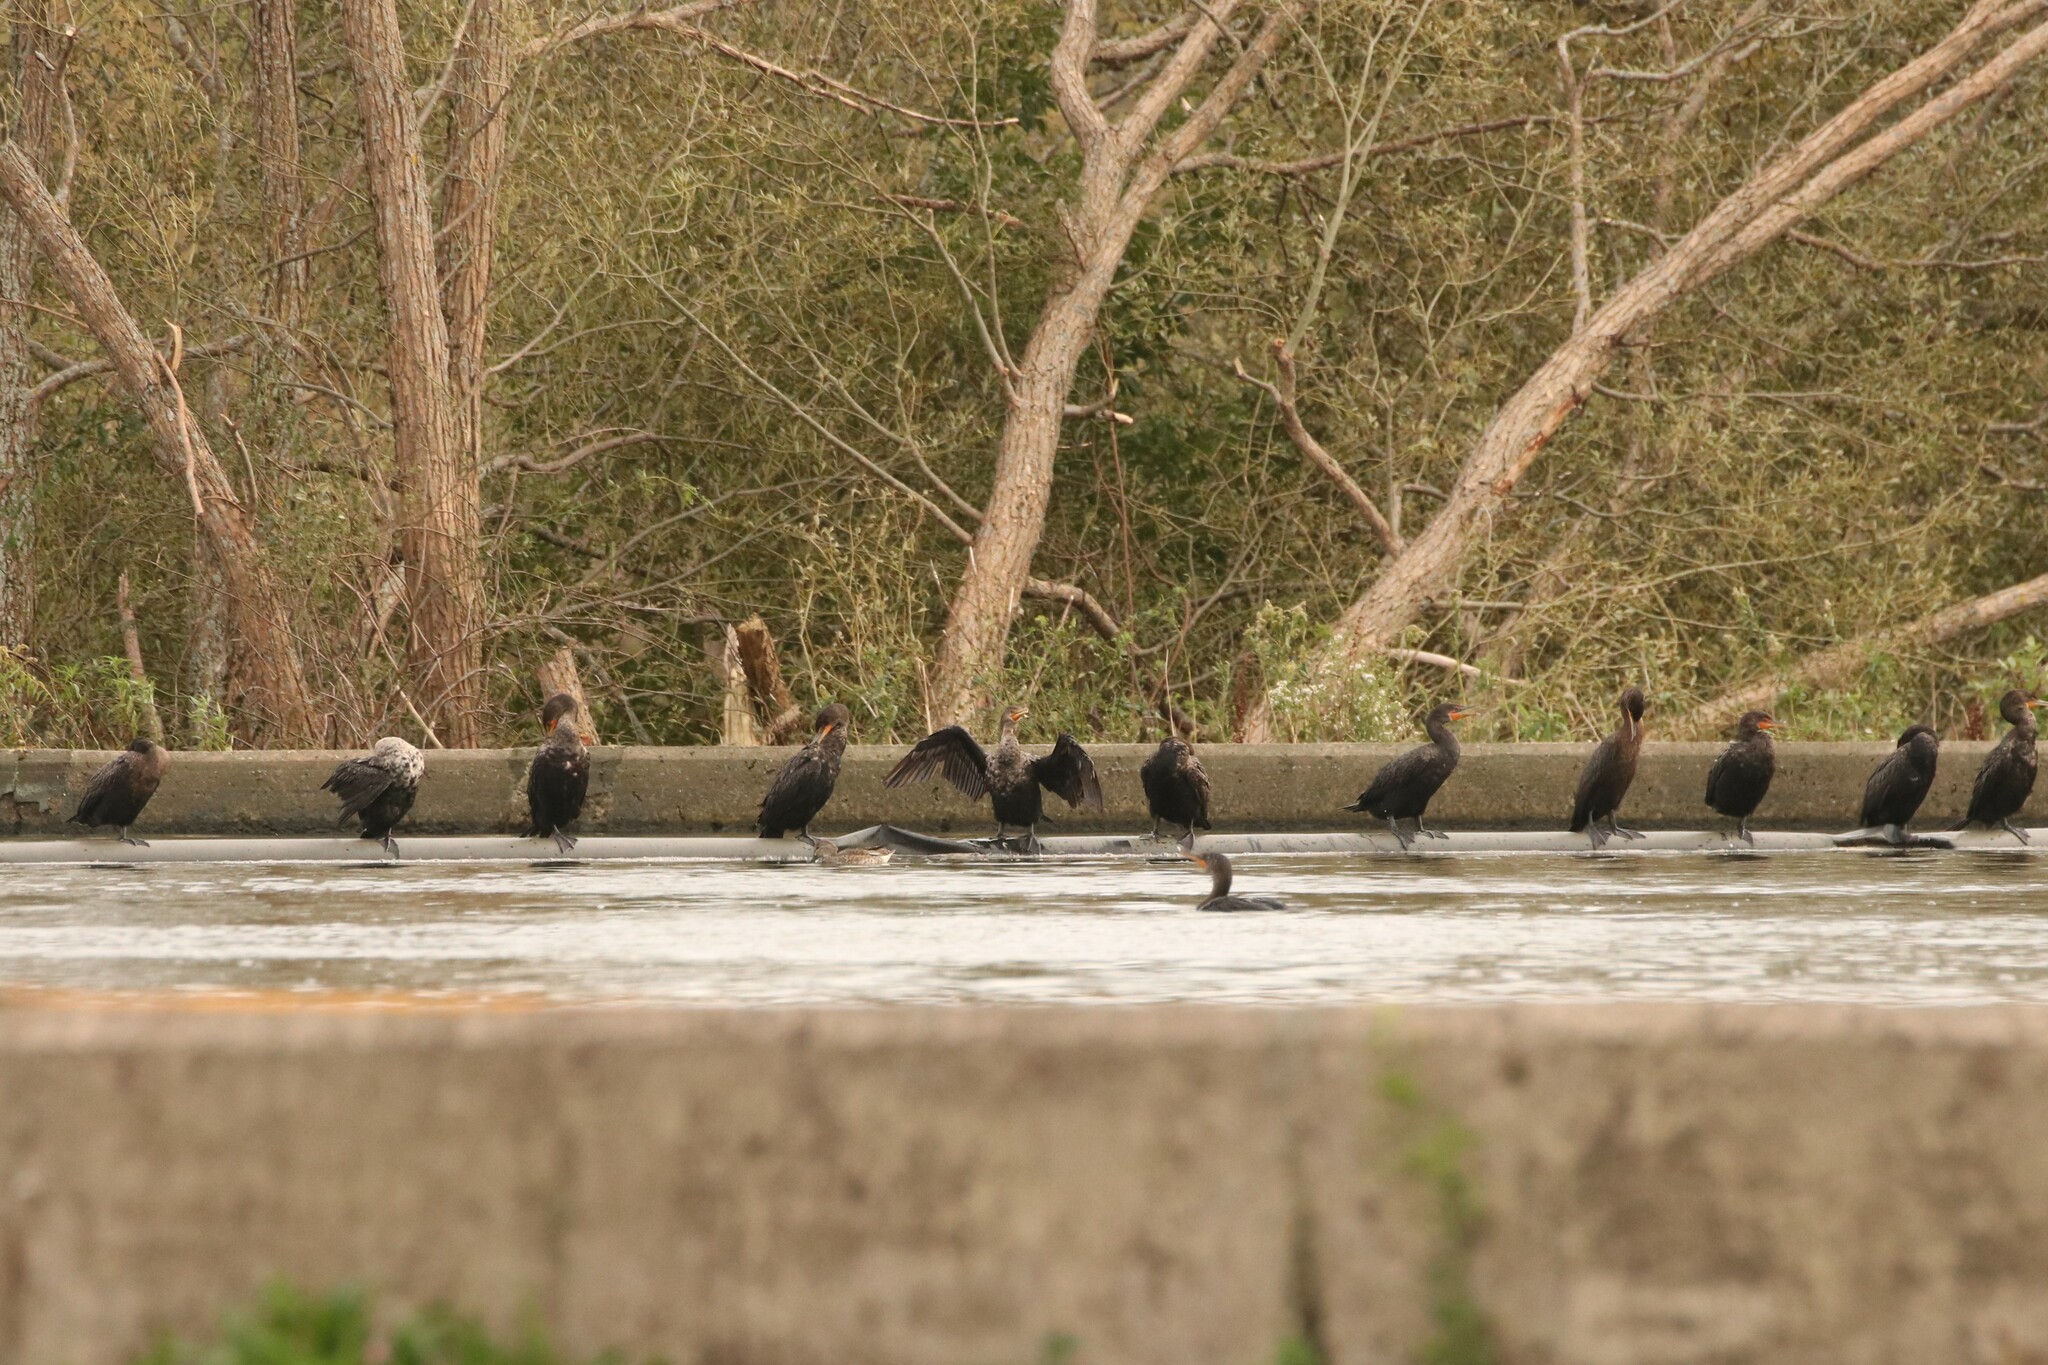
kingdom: Animalia
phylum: Chordata
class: Aves
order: Suliformes
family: Phalacrocoracidae
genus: Phalacrocorax
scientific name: Phalacrocorax auritus
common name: Double-crested cormorant
